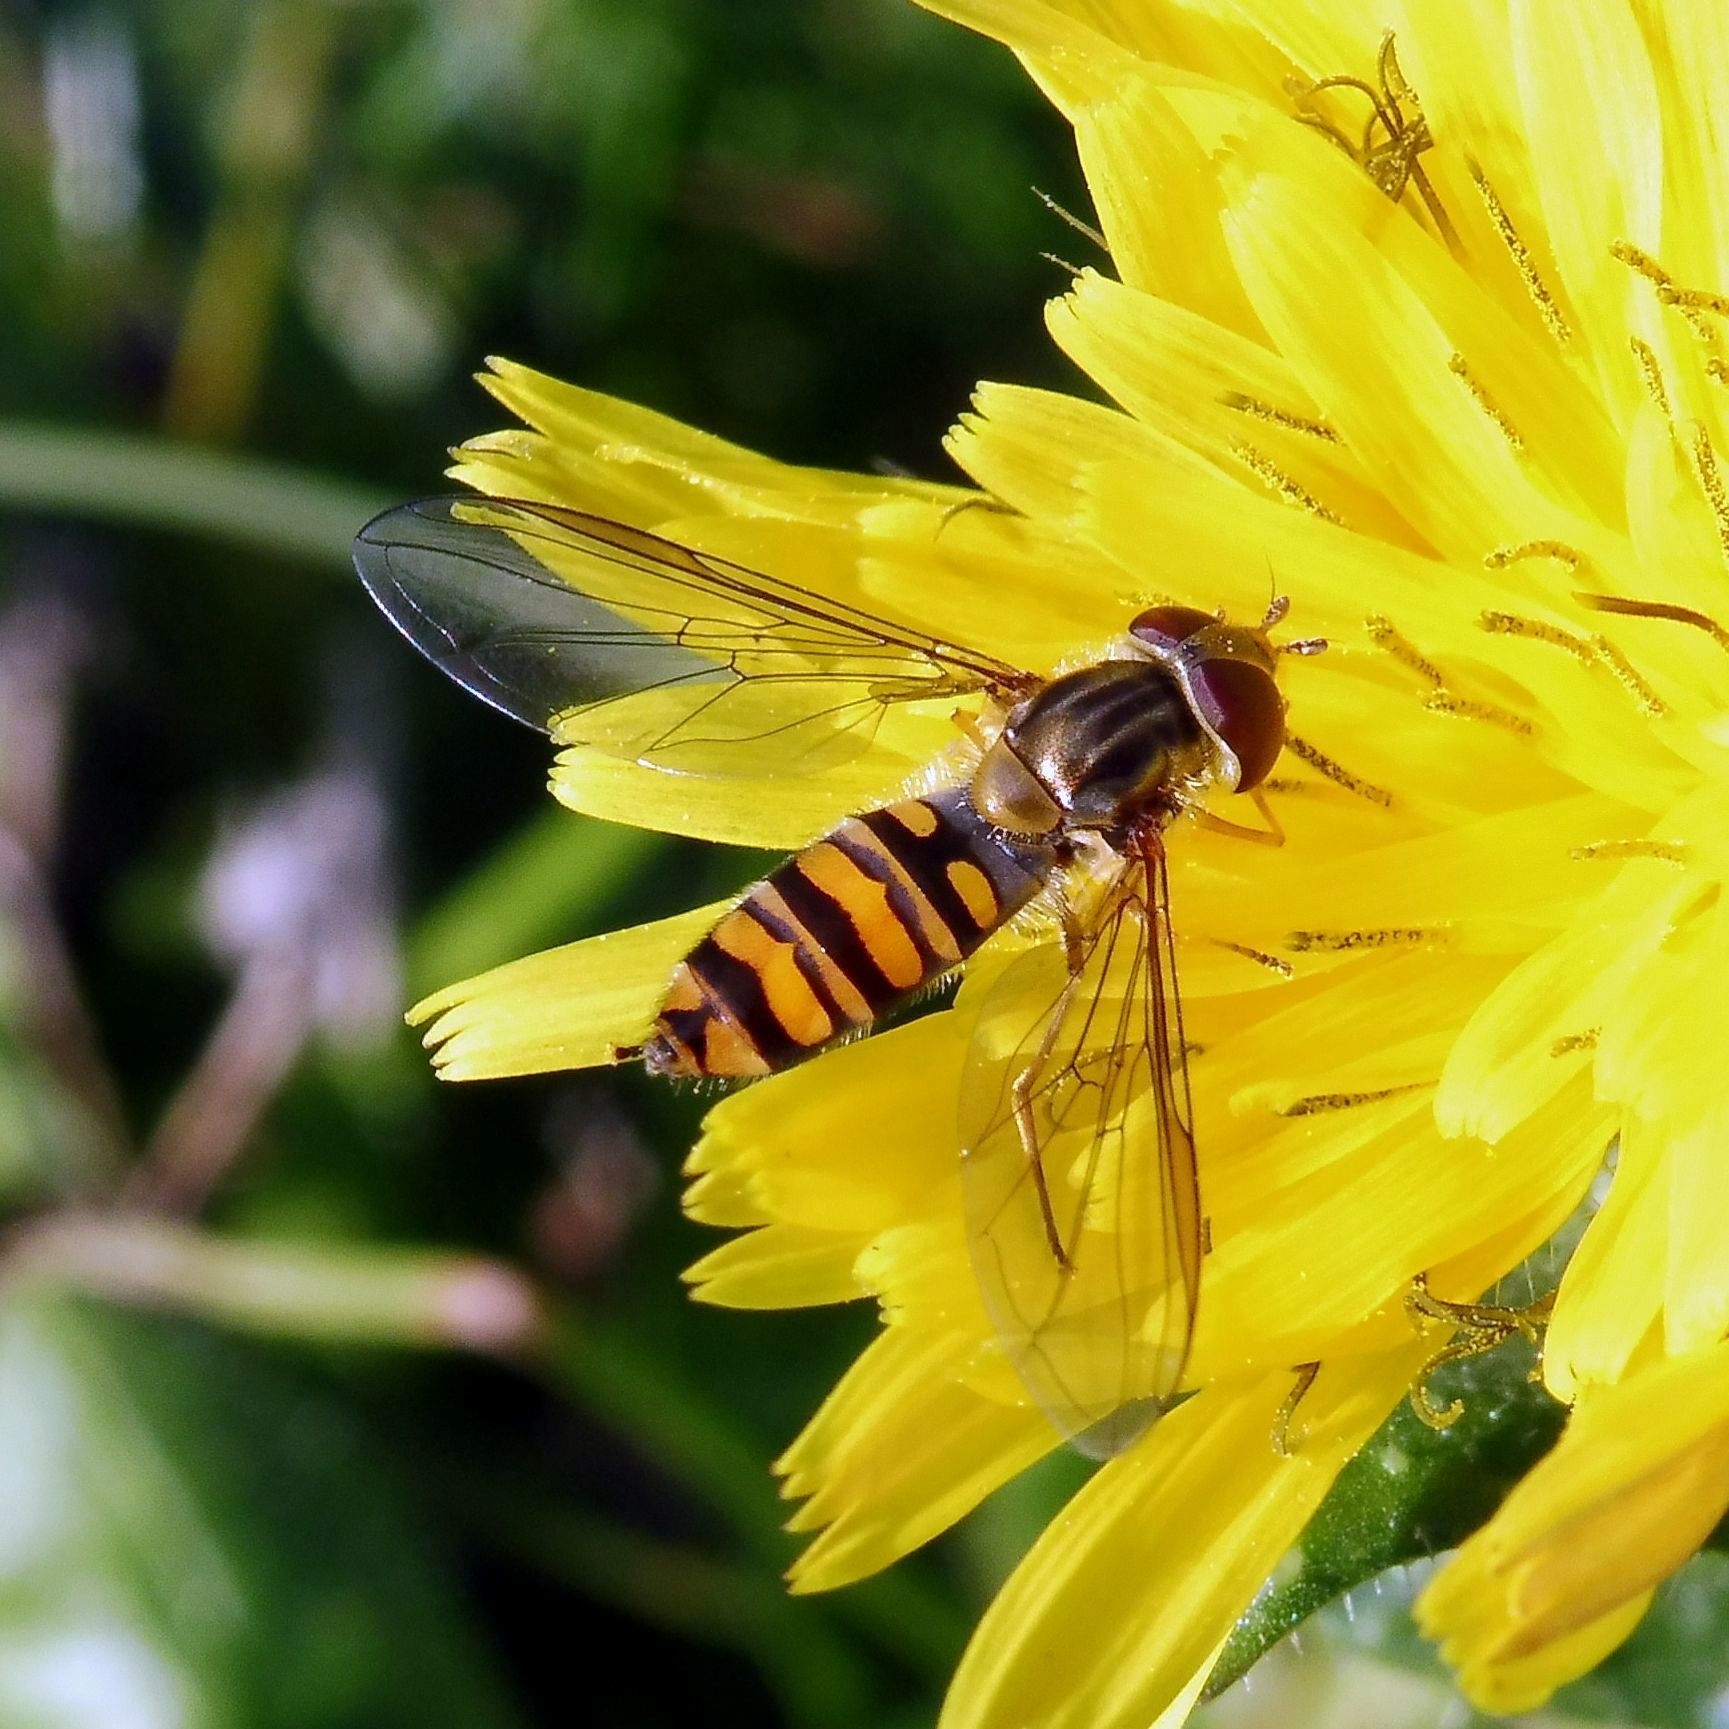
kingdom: Animalia
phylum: Arthropoda
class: Insecta
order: Diptera
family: Syrphidae
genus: Episyrphus
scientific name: Episyrphus balteatus
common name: Marmalade hoverfly
